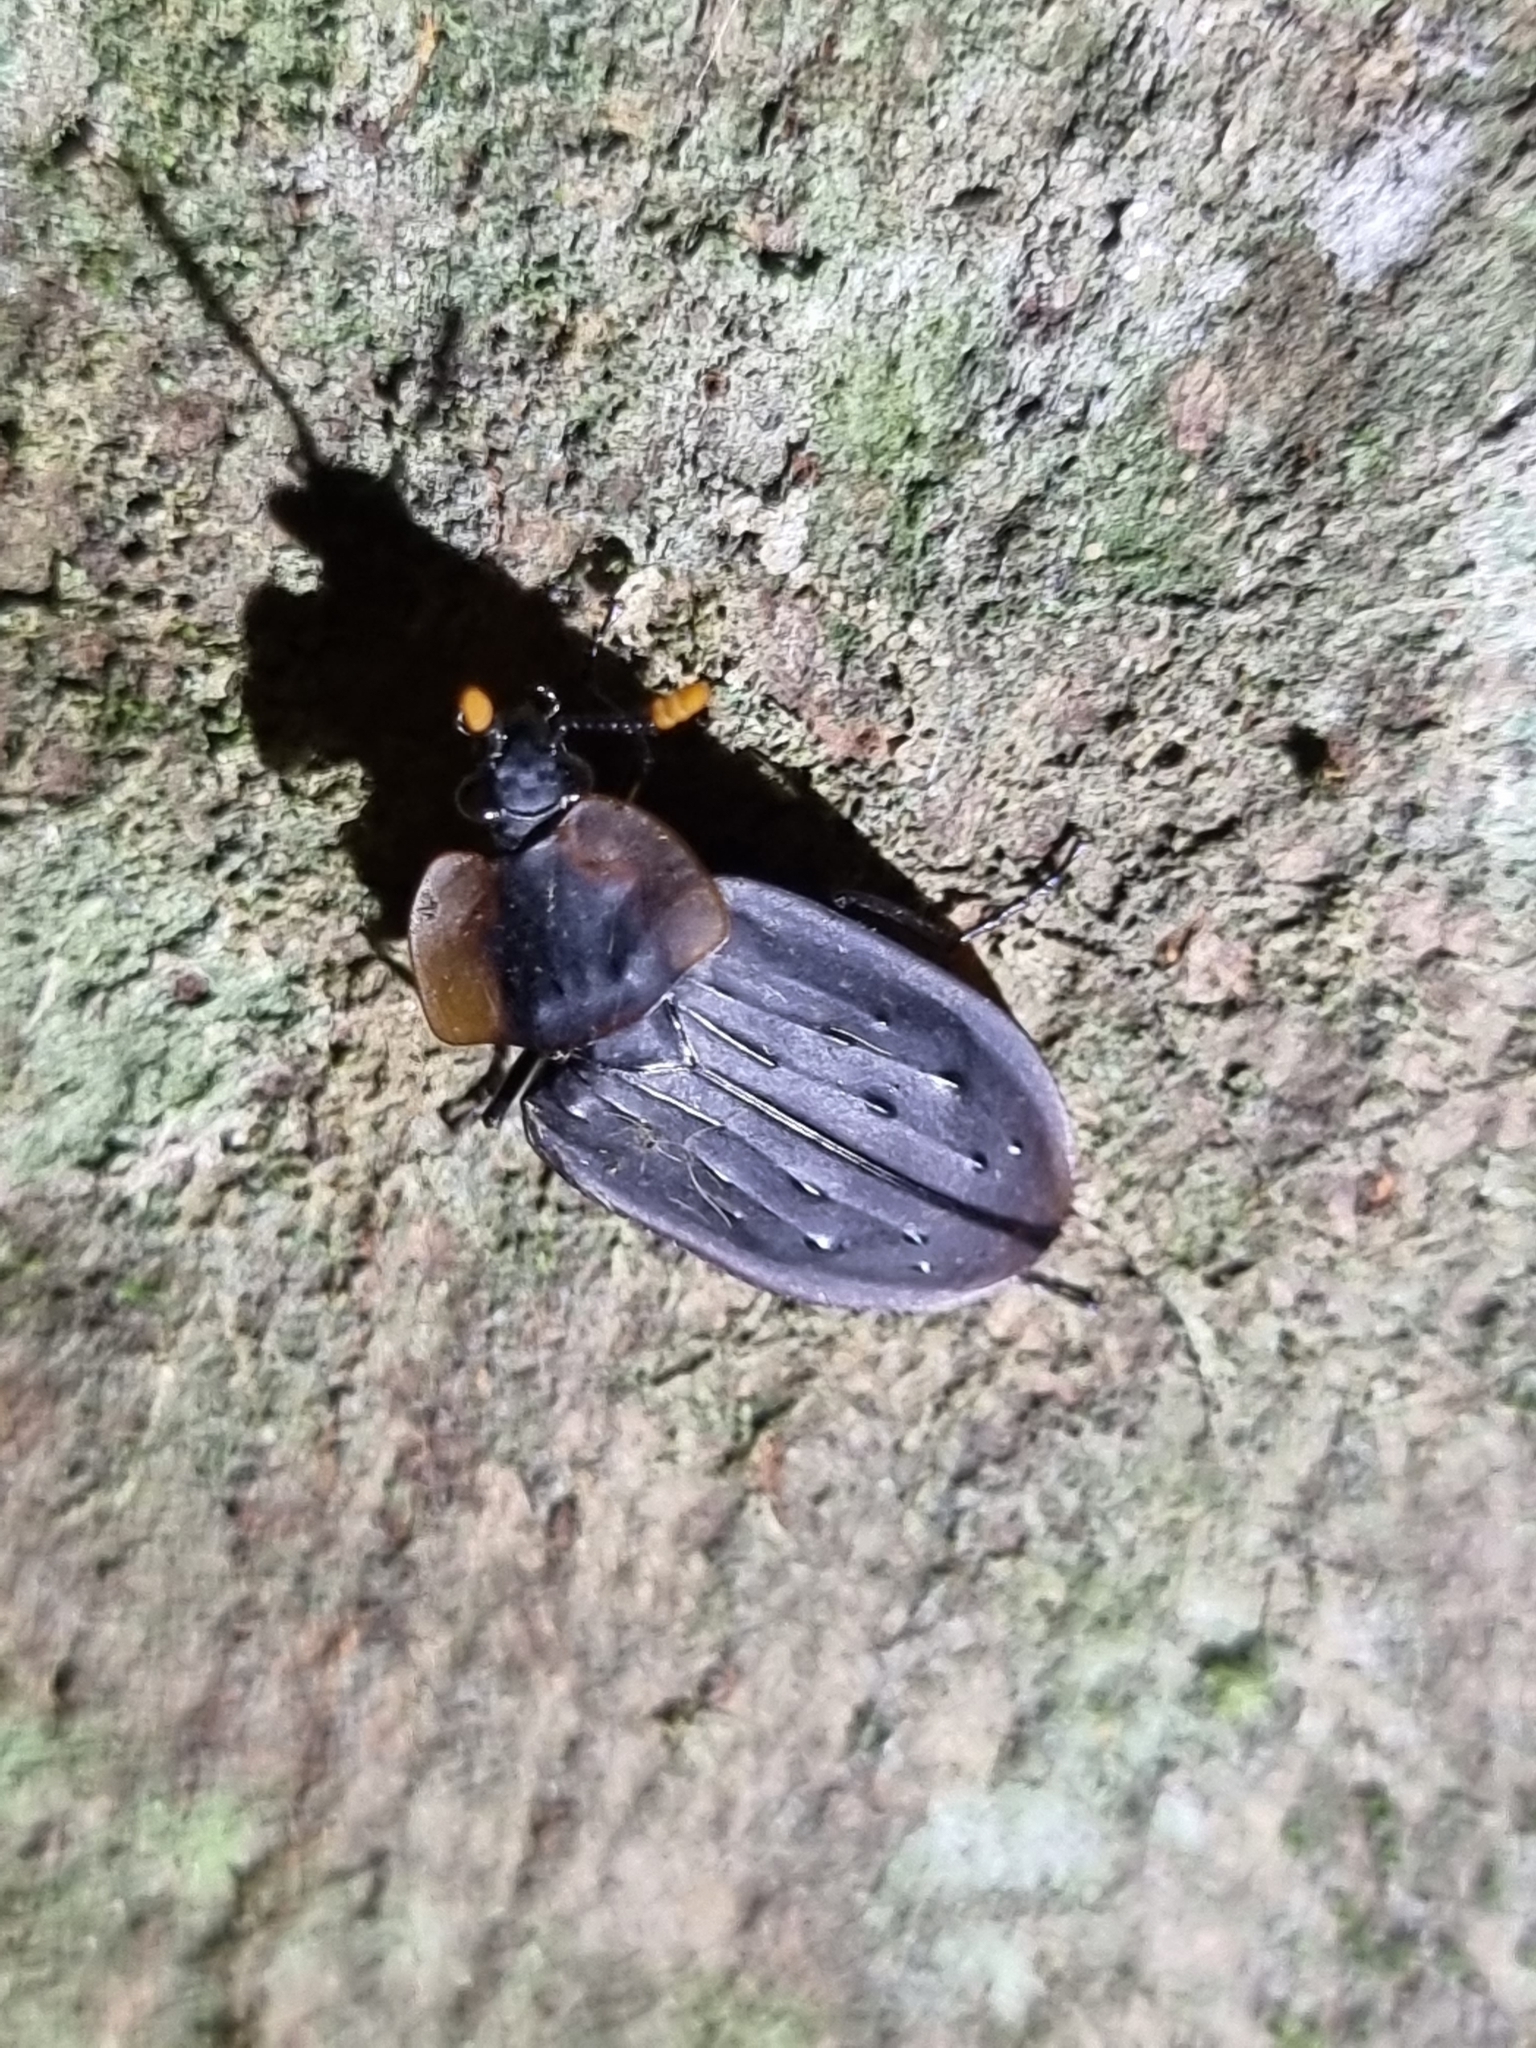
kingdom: Animalia
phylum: Arthropoda
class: Insecta
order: Coleoptera
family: Staphylinidae
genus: Ptomaphila
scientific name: Ptomaphila perlata
